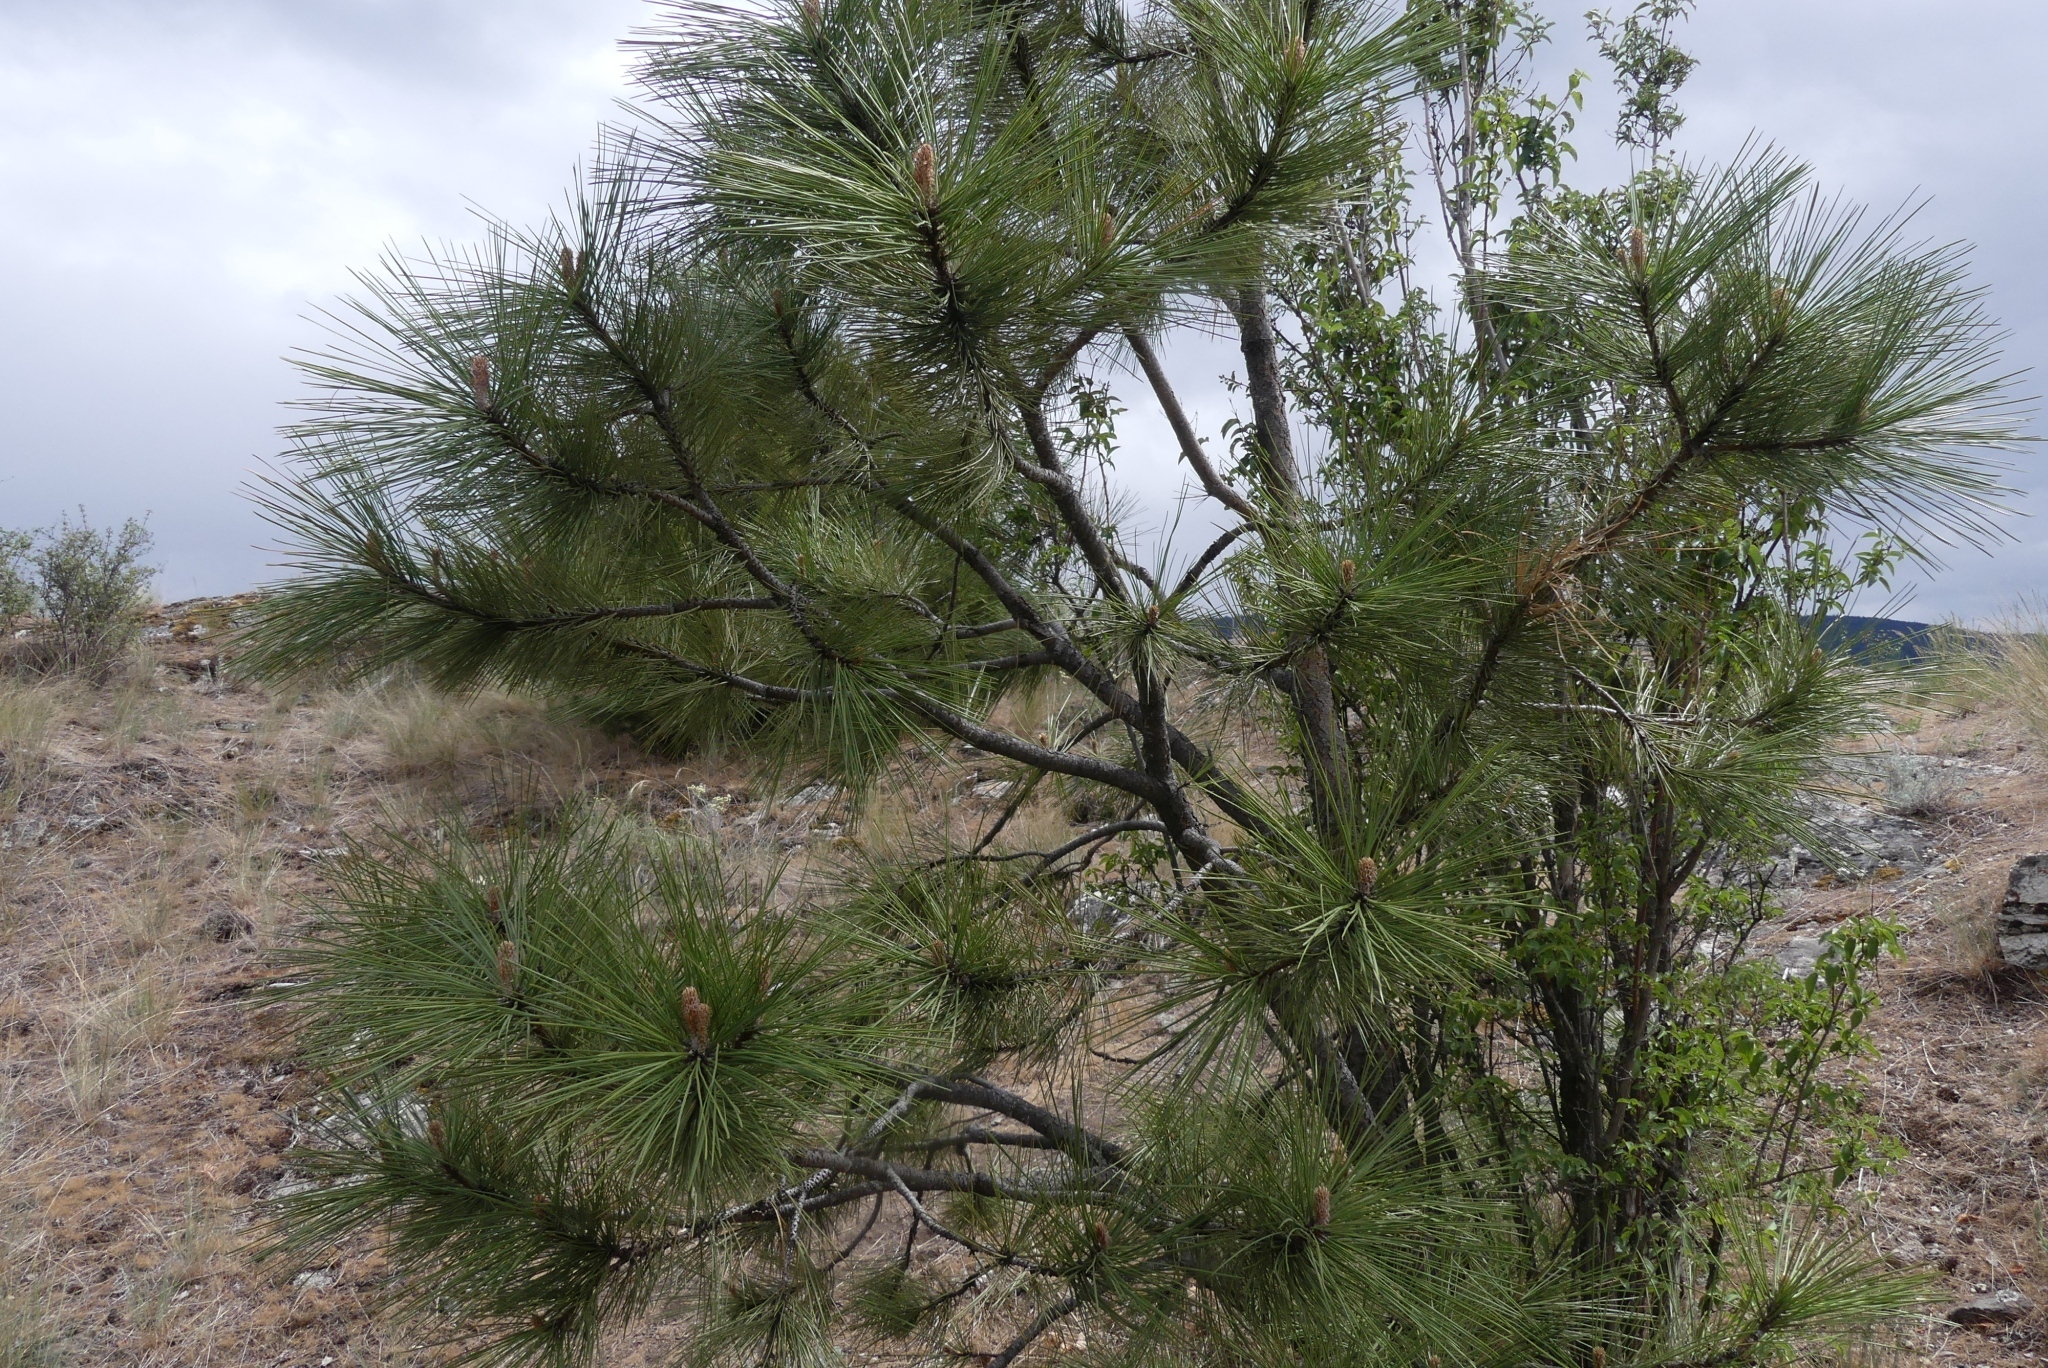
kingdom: Plantae
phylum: Tracheophyta
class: Pinopsida
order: Pinales
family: Pinaceae
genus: Pinus
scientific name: Pinus ponderosa
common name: Western yellow-pine
